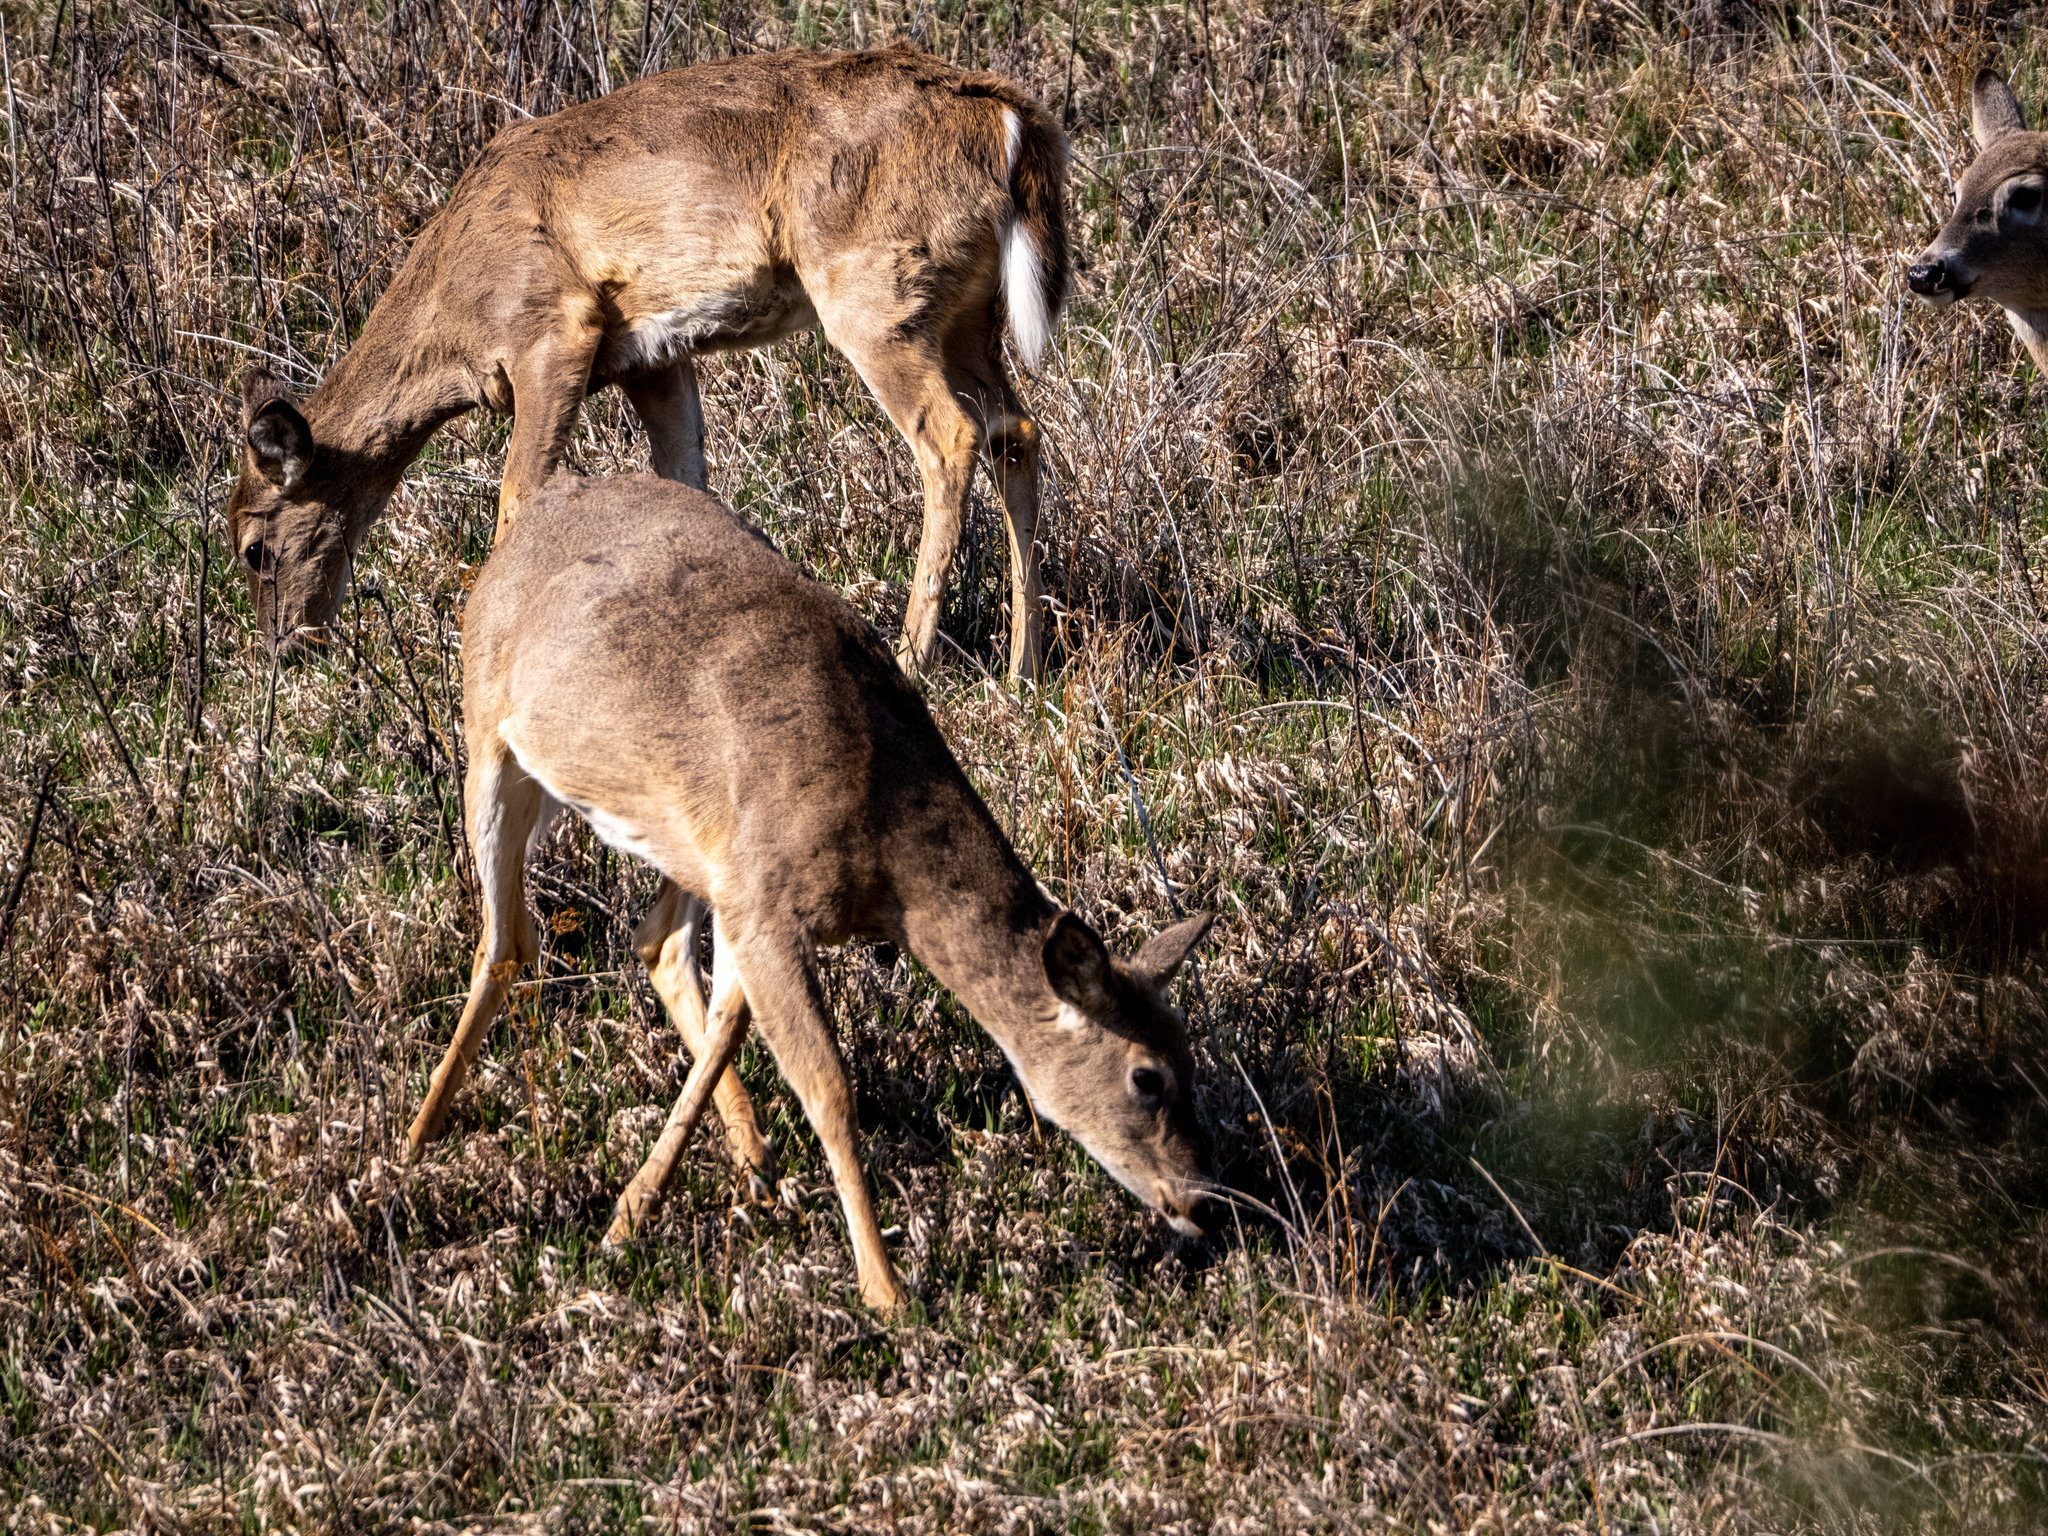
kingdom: Animalia
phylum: Chordata
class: Mammalia
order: Artiodactyla
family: Cervidae
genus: Odocoileus
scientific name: Odocoileus virginianus
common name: White-tailed deer
